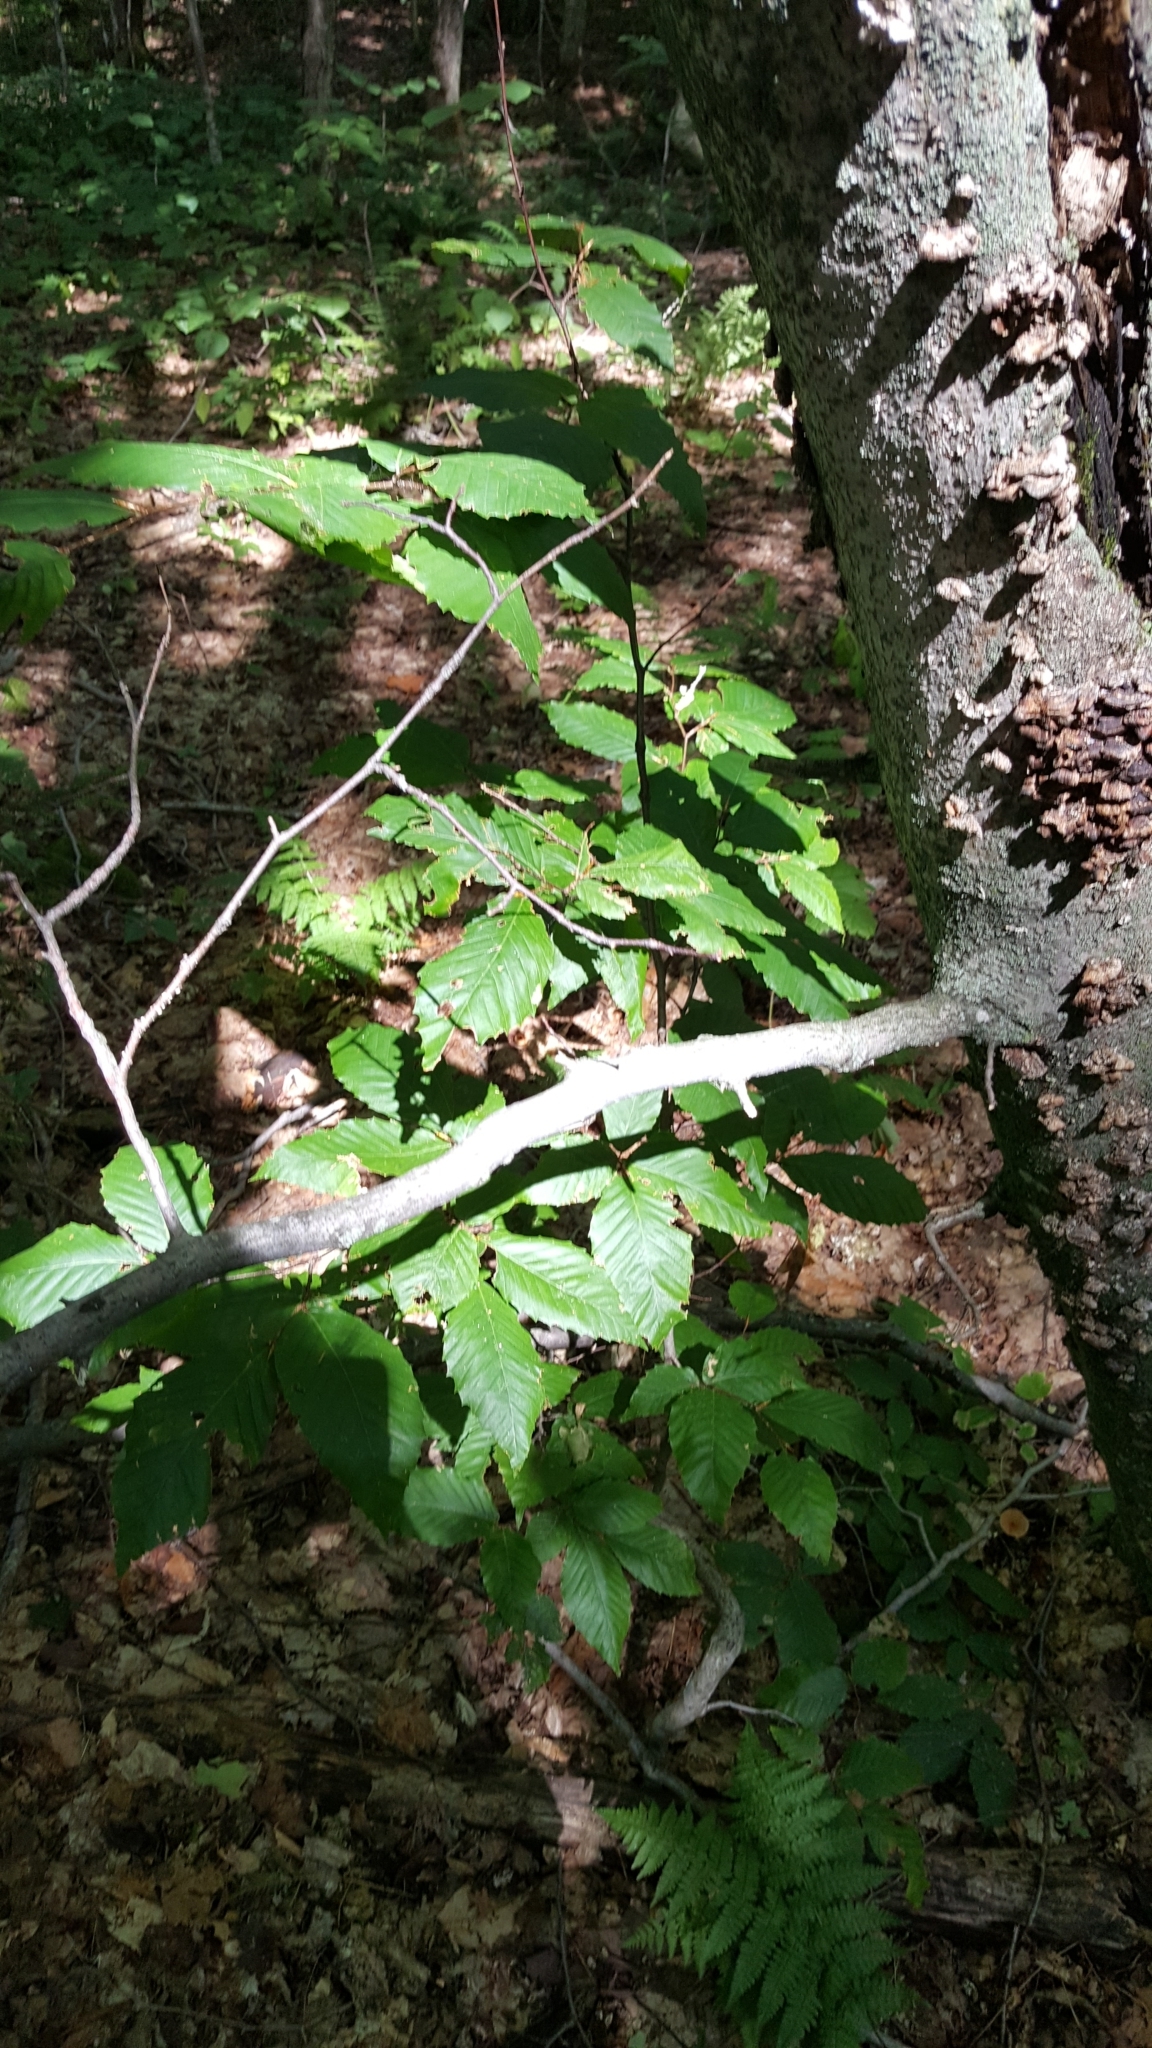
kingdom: Plantae
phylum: Tracheophyta
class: Magnoliopsida
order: Fagales
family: Fagaceae
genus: Fagus
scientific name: Fagus grandifolia
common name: American beech
